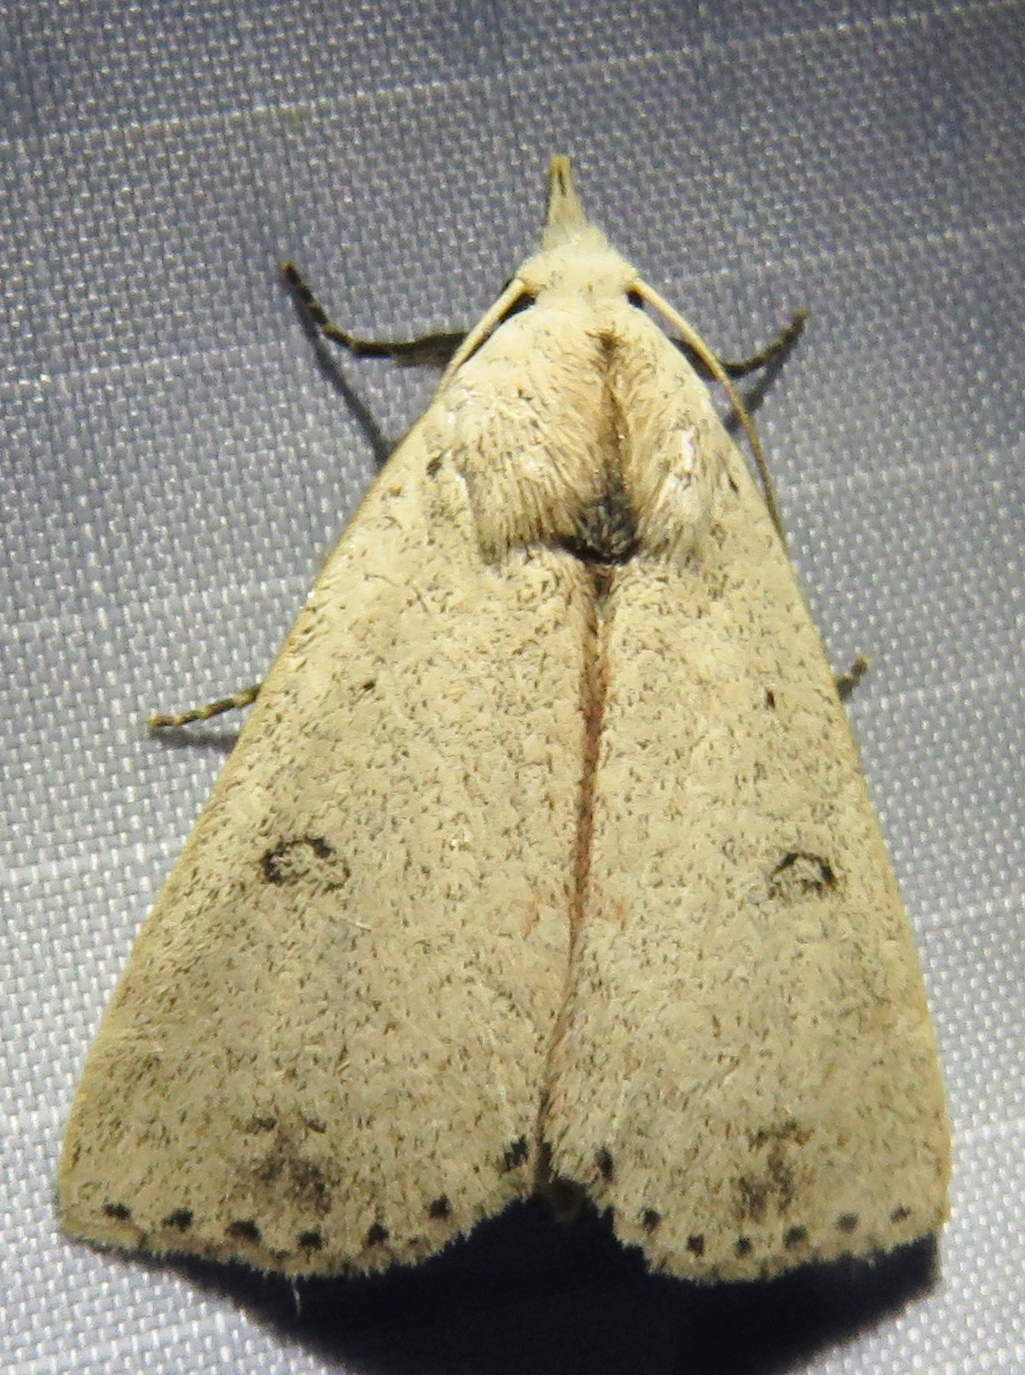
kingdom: Animalia
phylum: Arthropoda
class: Insecta
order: Lepidoptera
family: Erebidae
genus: Scolecocampa
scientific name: Scolecocampa liburna
